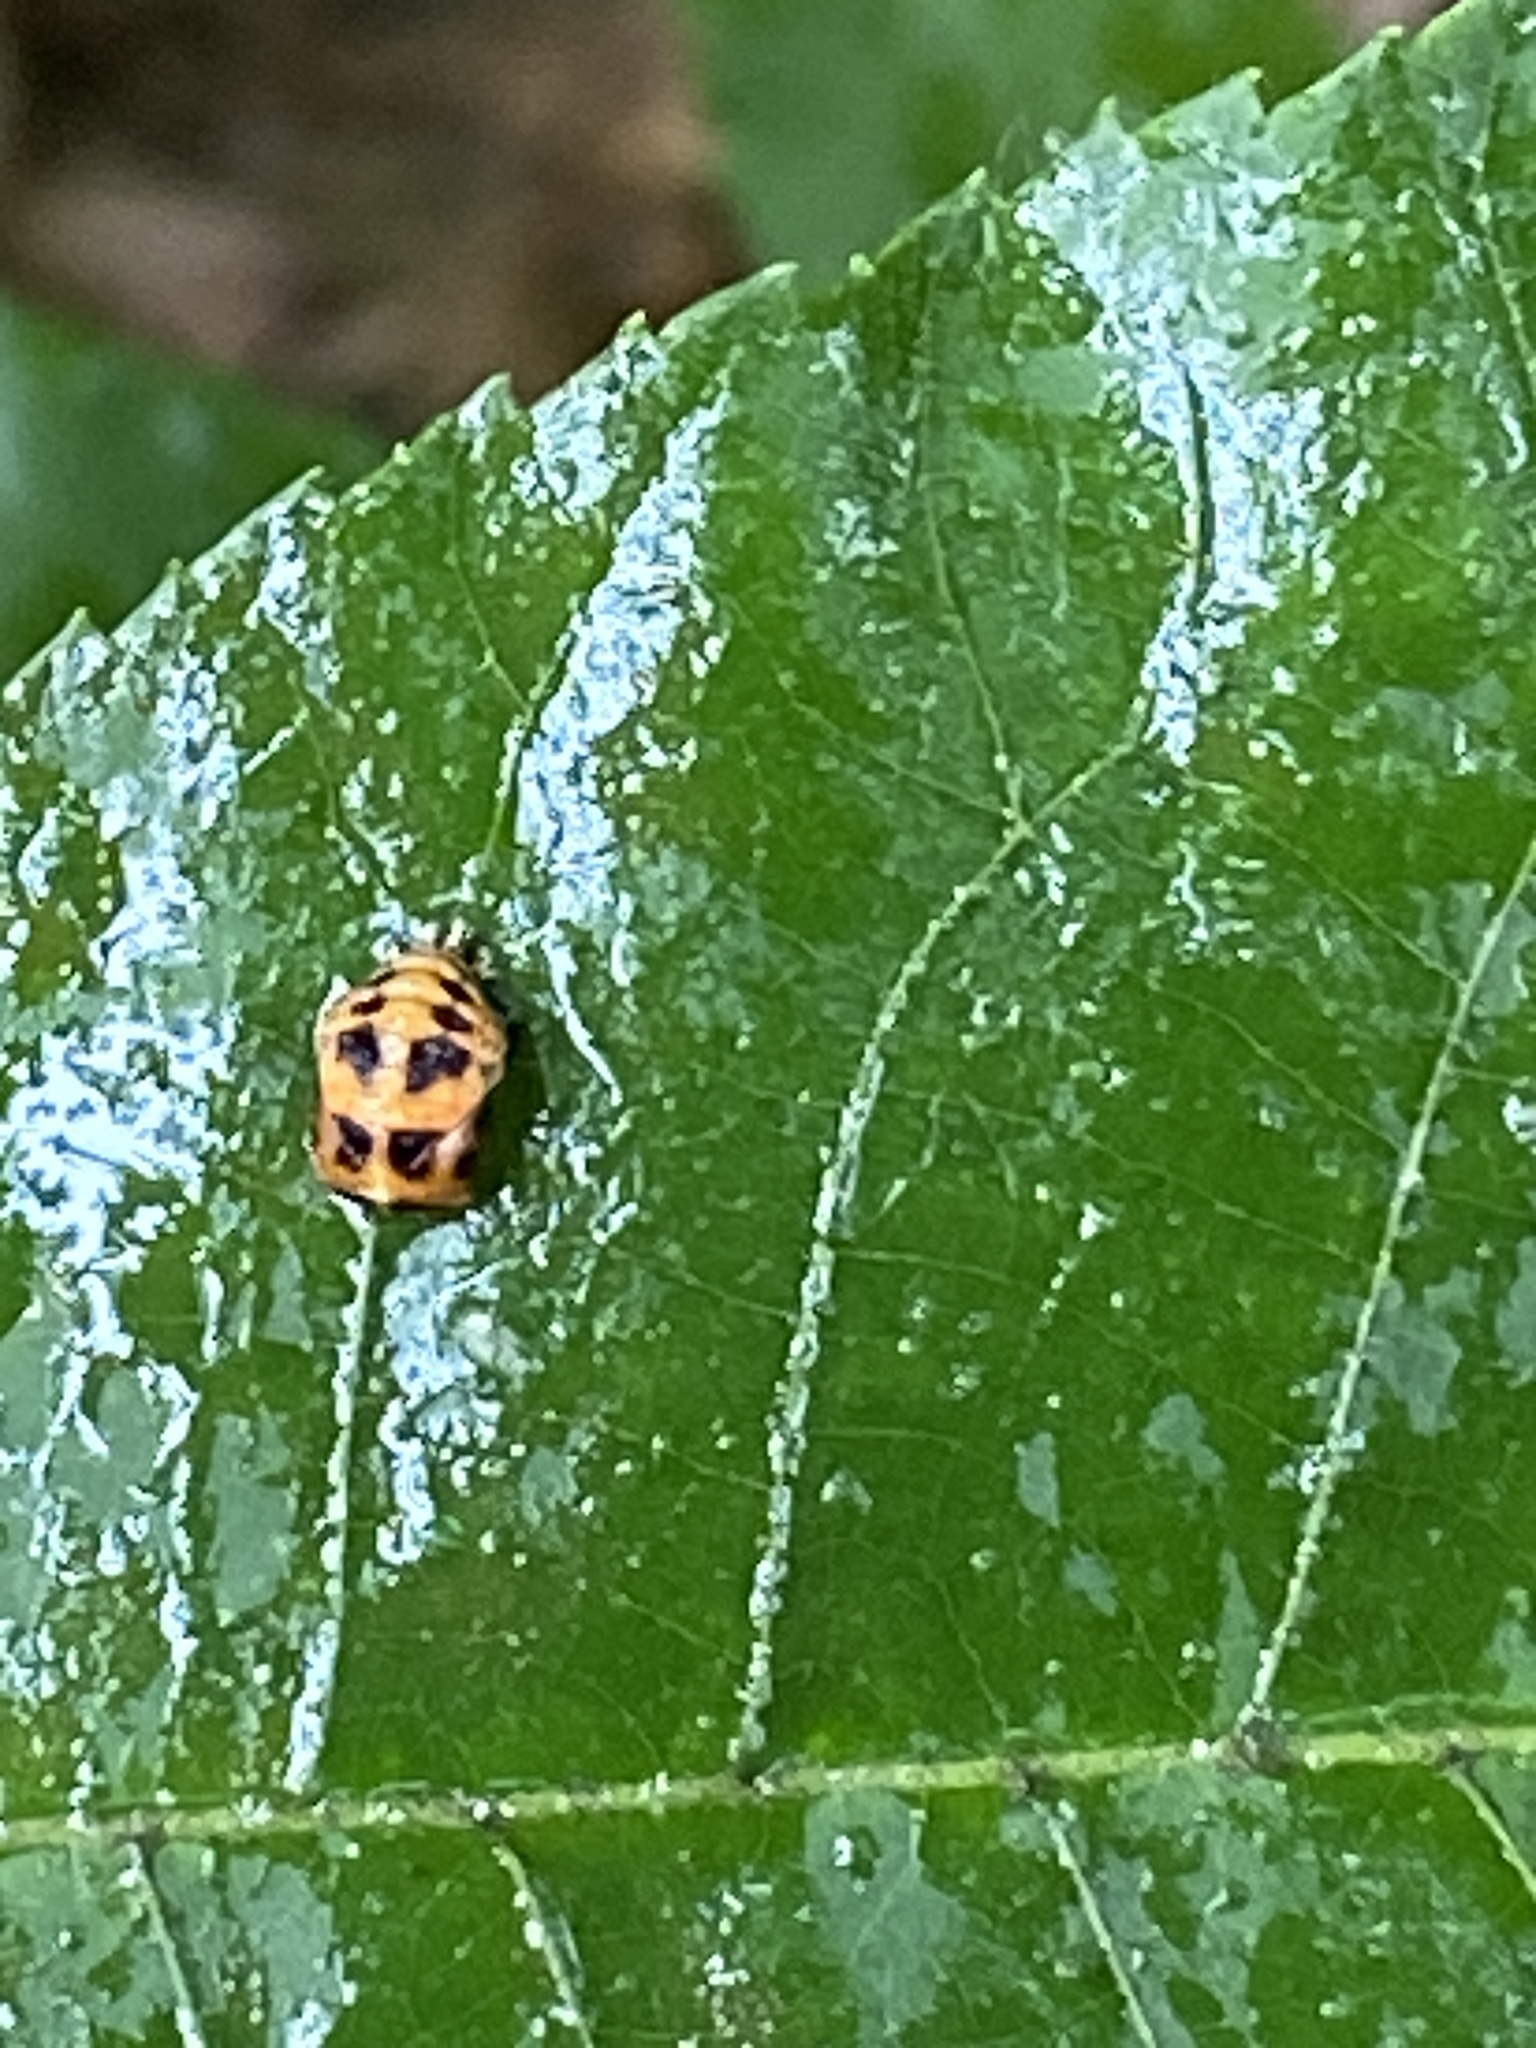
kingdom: Animalia
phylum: Arthropoda
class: Insecta
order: Coleoptera
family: Coccinellidae
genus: Harmonia
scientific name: Harmonia axyridis
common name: Harlequin ladybird
